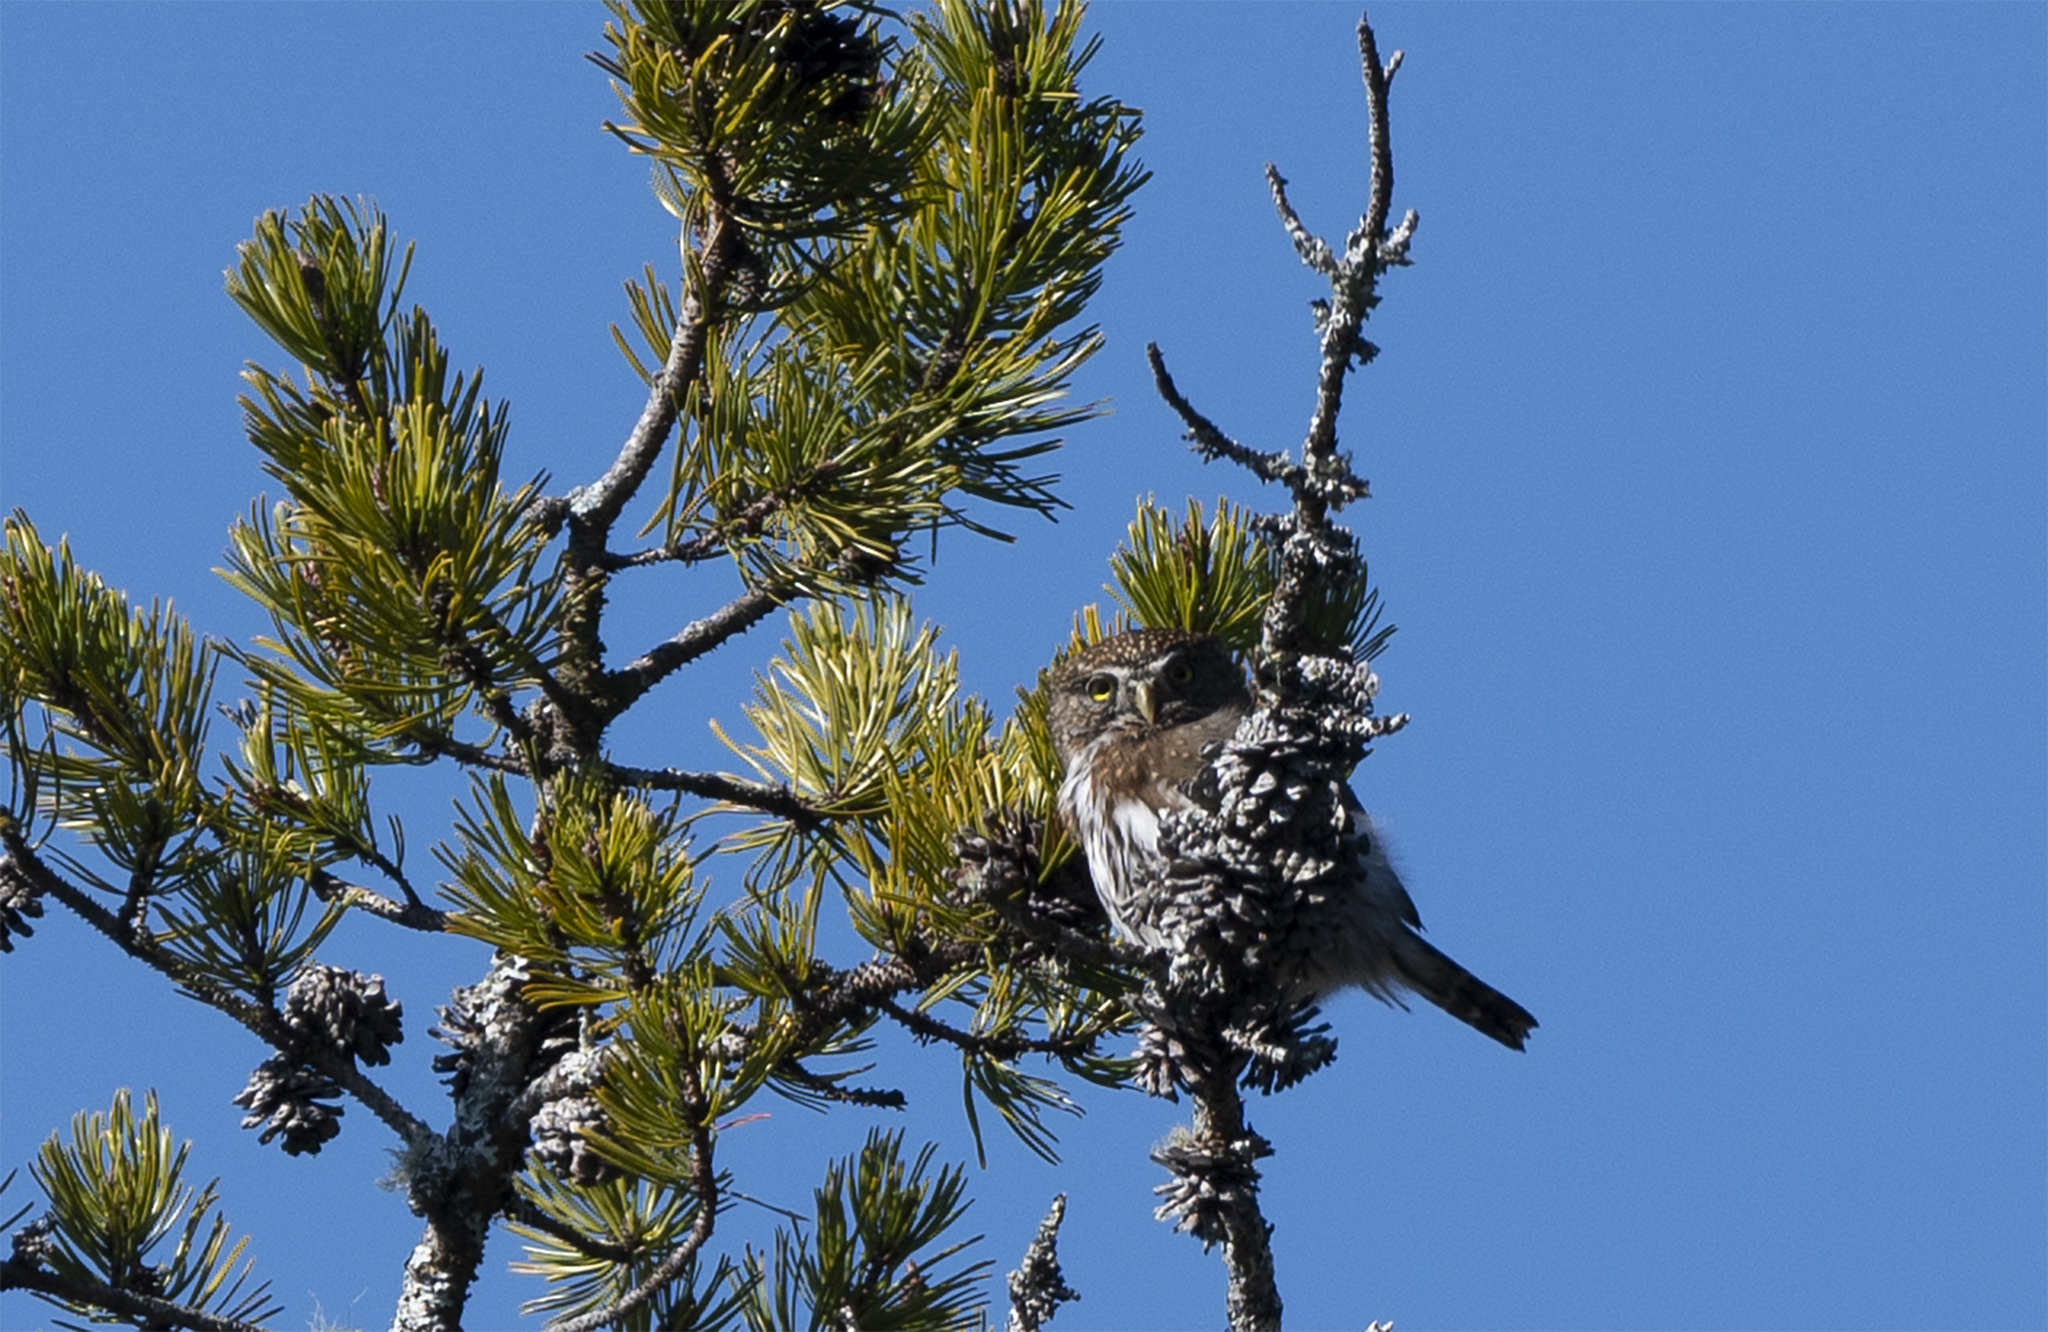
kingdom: Animalia
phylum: Chordata
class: Aves
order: Strigiformes
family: Strigidae
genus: Glaucidium
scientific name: Glaucidium gnoma
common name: Northern pygmy-owl
